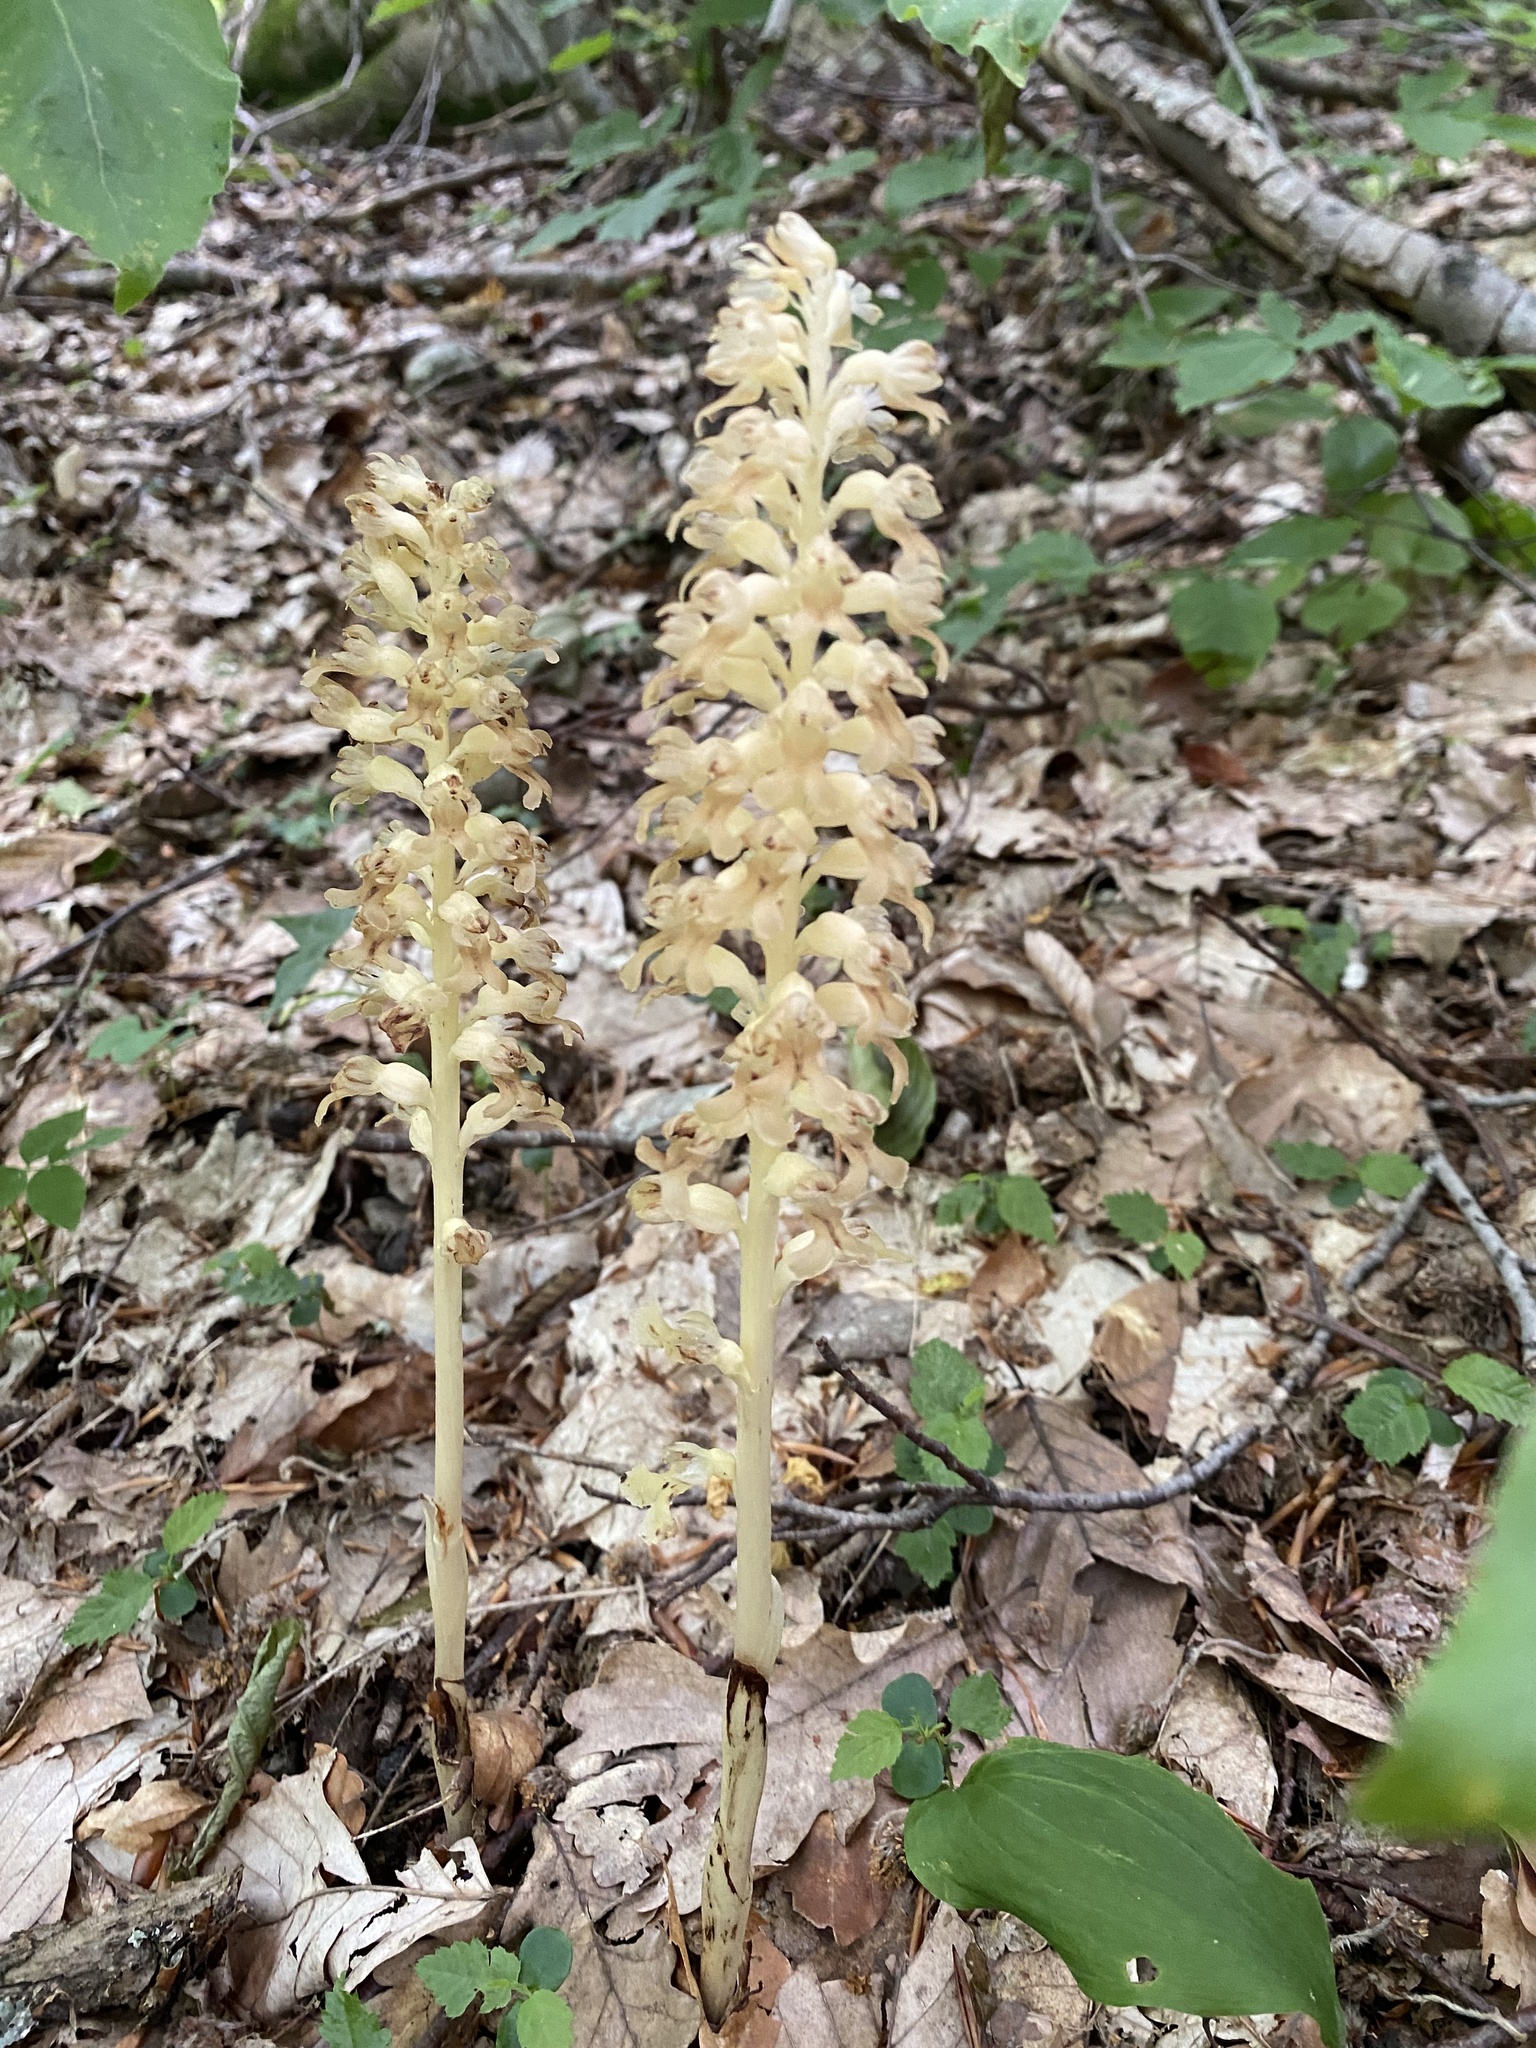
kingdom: Plantae
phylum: Tracheophyta
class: Liliopsida
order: Asparagales
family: Orchidaceae
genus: Neottia
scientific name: Neottia nidus-avis
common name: Bird's-nest orchid
